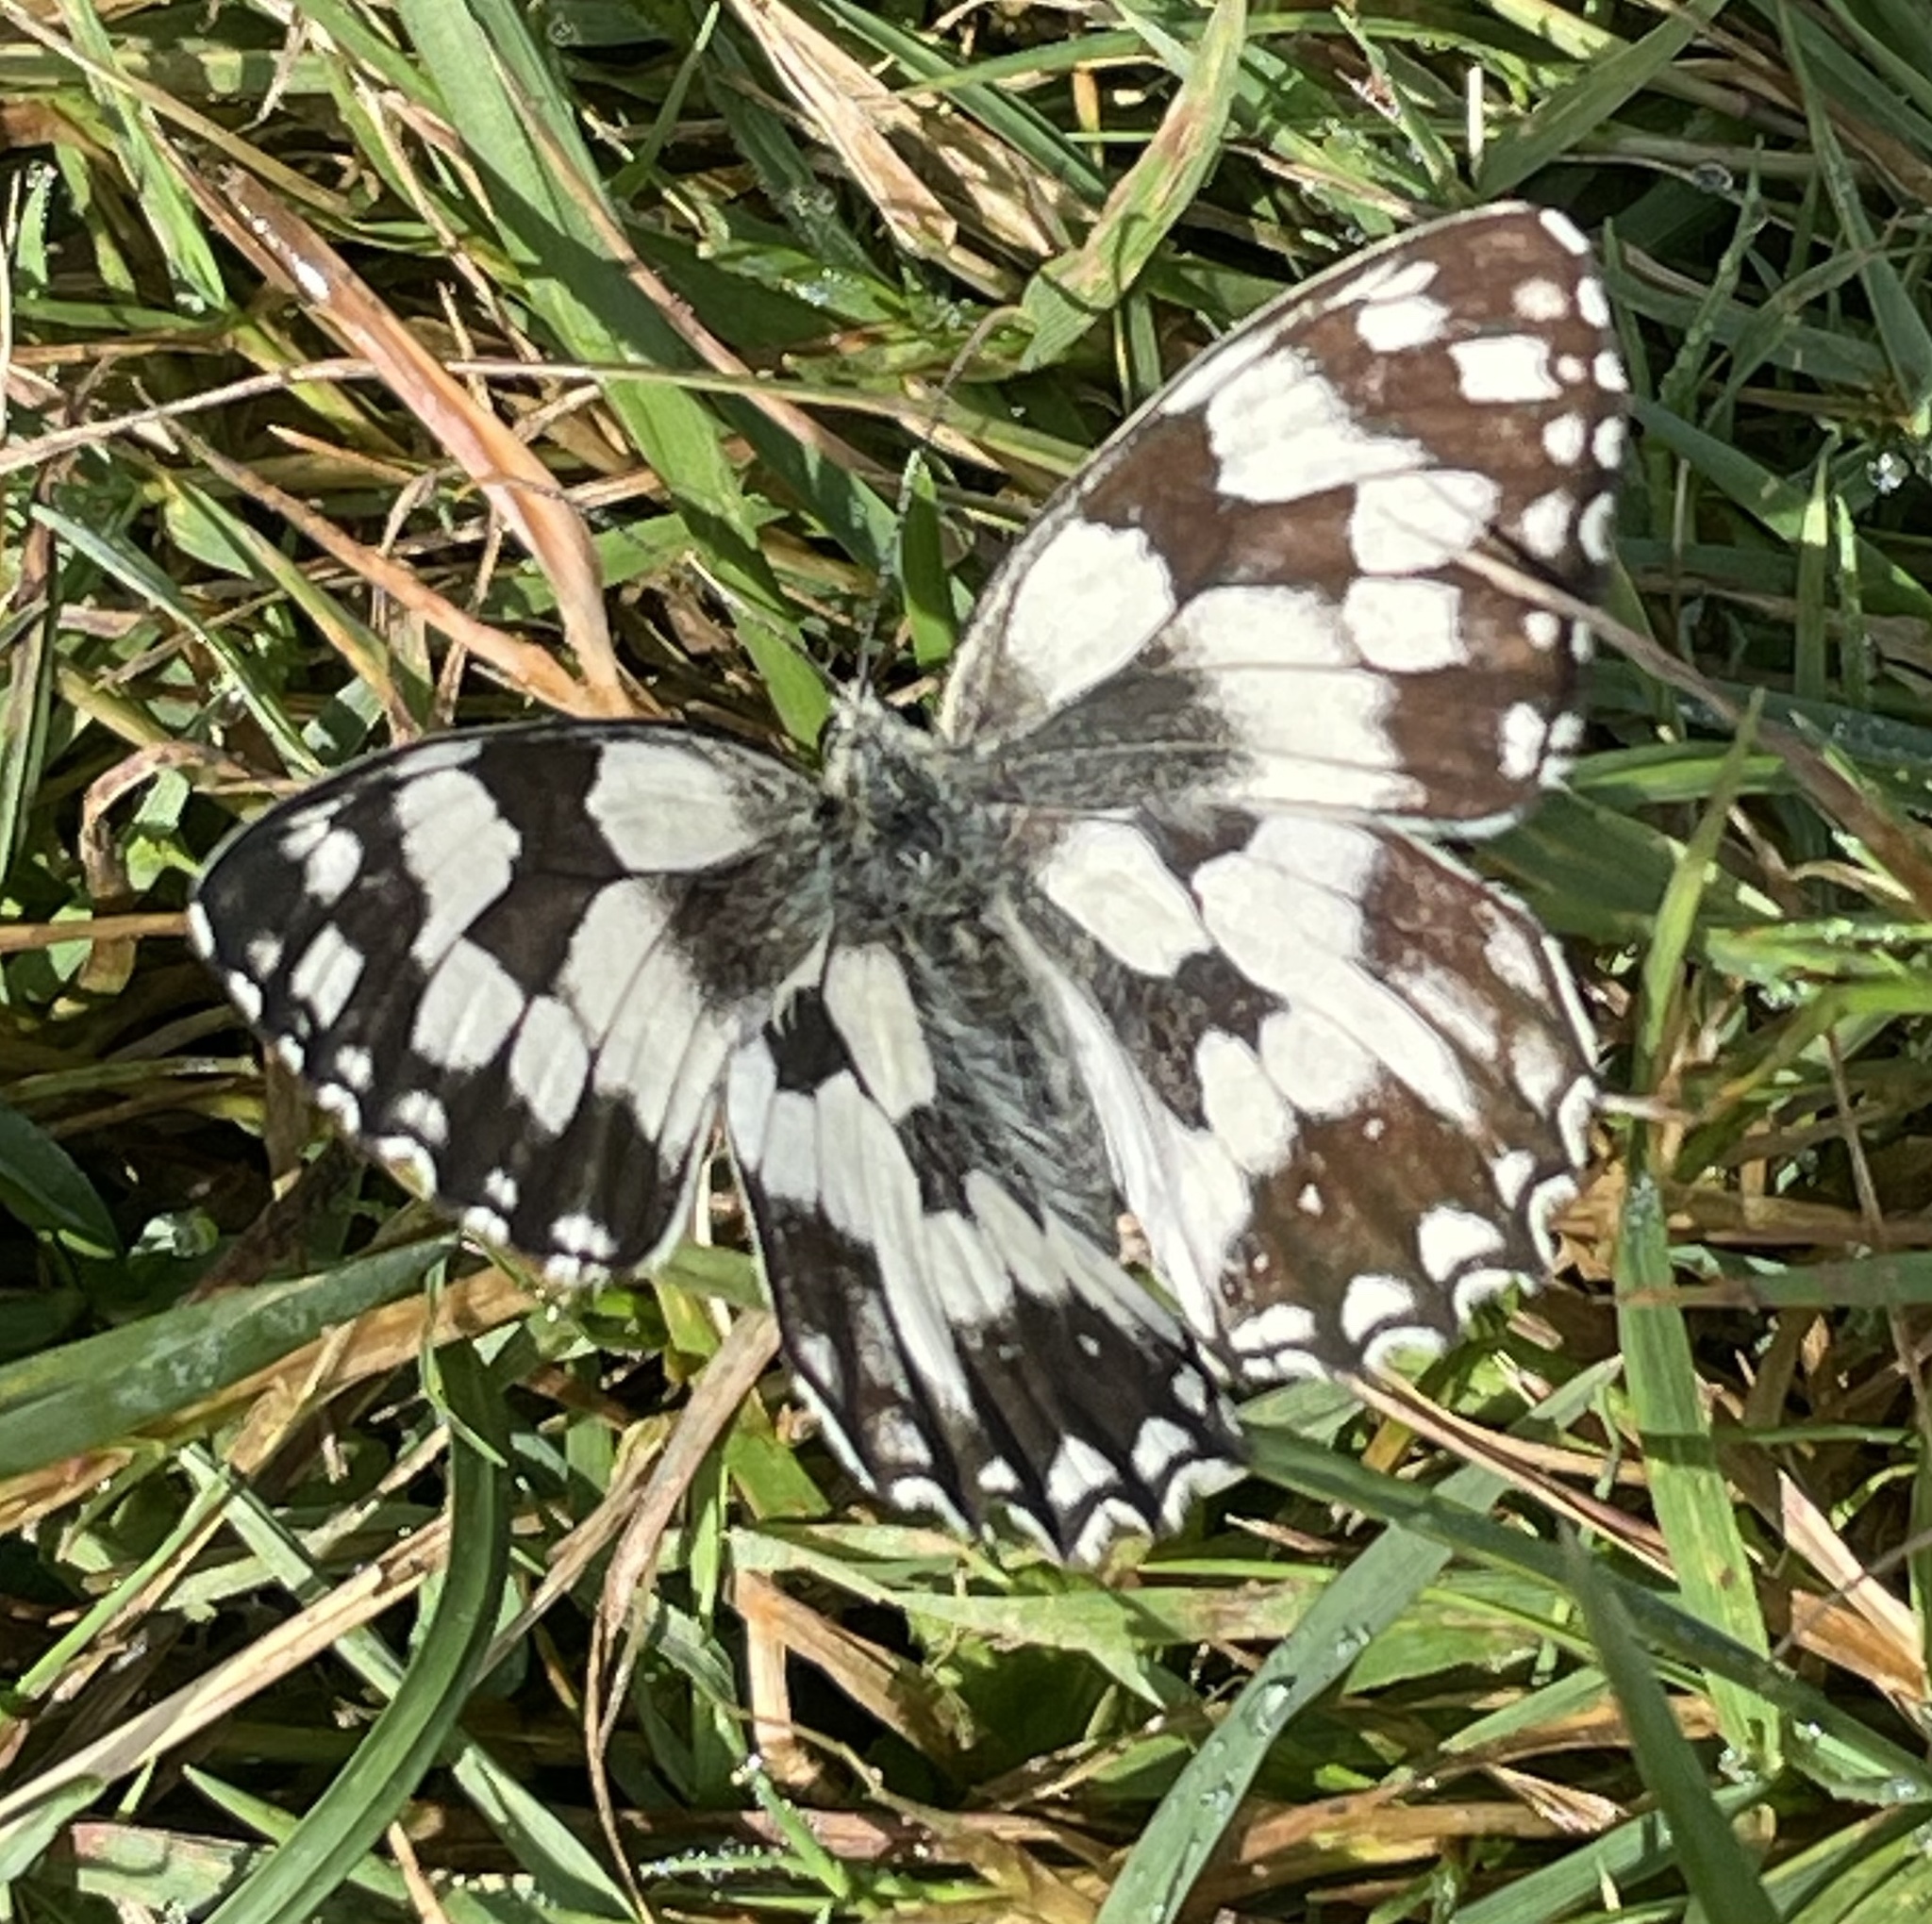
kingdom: Animalia
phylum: Arthropoda
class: Insecta
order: Lepidoptera
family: Nymphalidae
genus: Melanargia
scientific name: Melanargia galathea
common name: Marbled white
